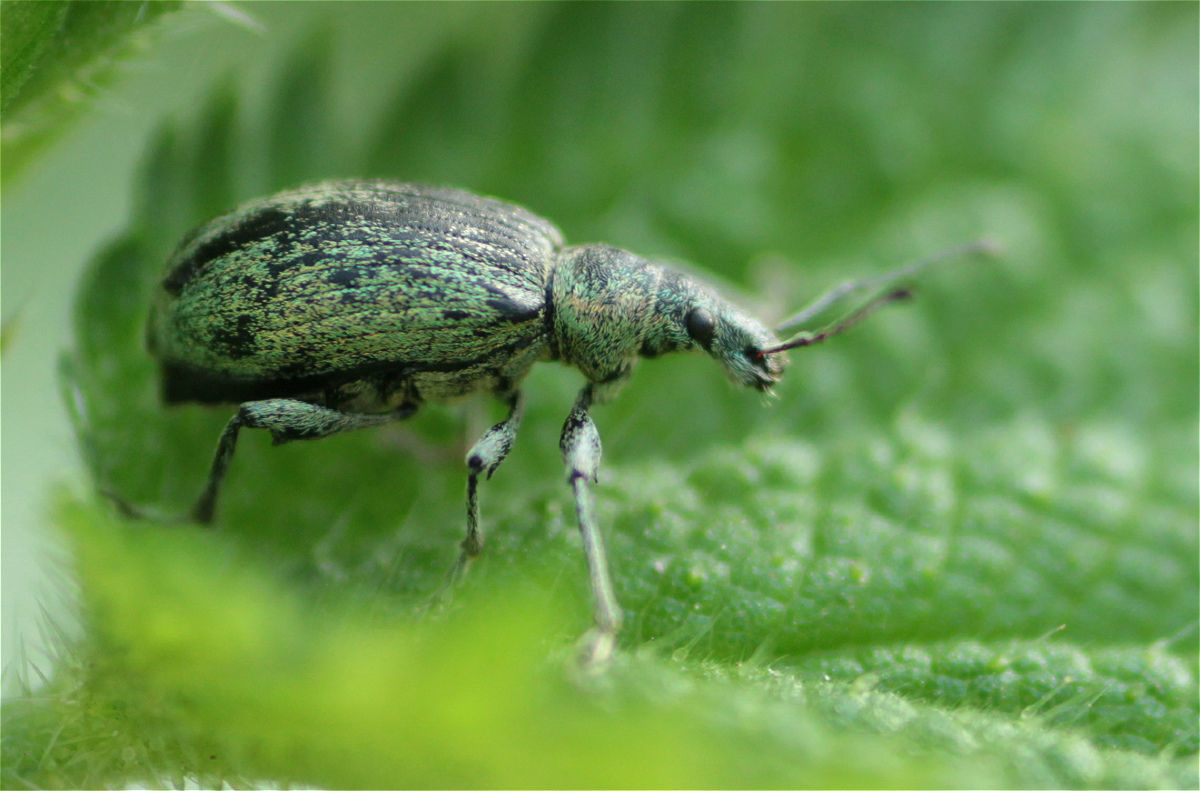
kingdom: Animalia
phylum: Arthropoda
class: Insecta
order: Coleoptera
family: Curculionidae
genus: Phyllobius
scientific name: Phyllobius pomaceus
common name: Green nettle weevil
